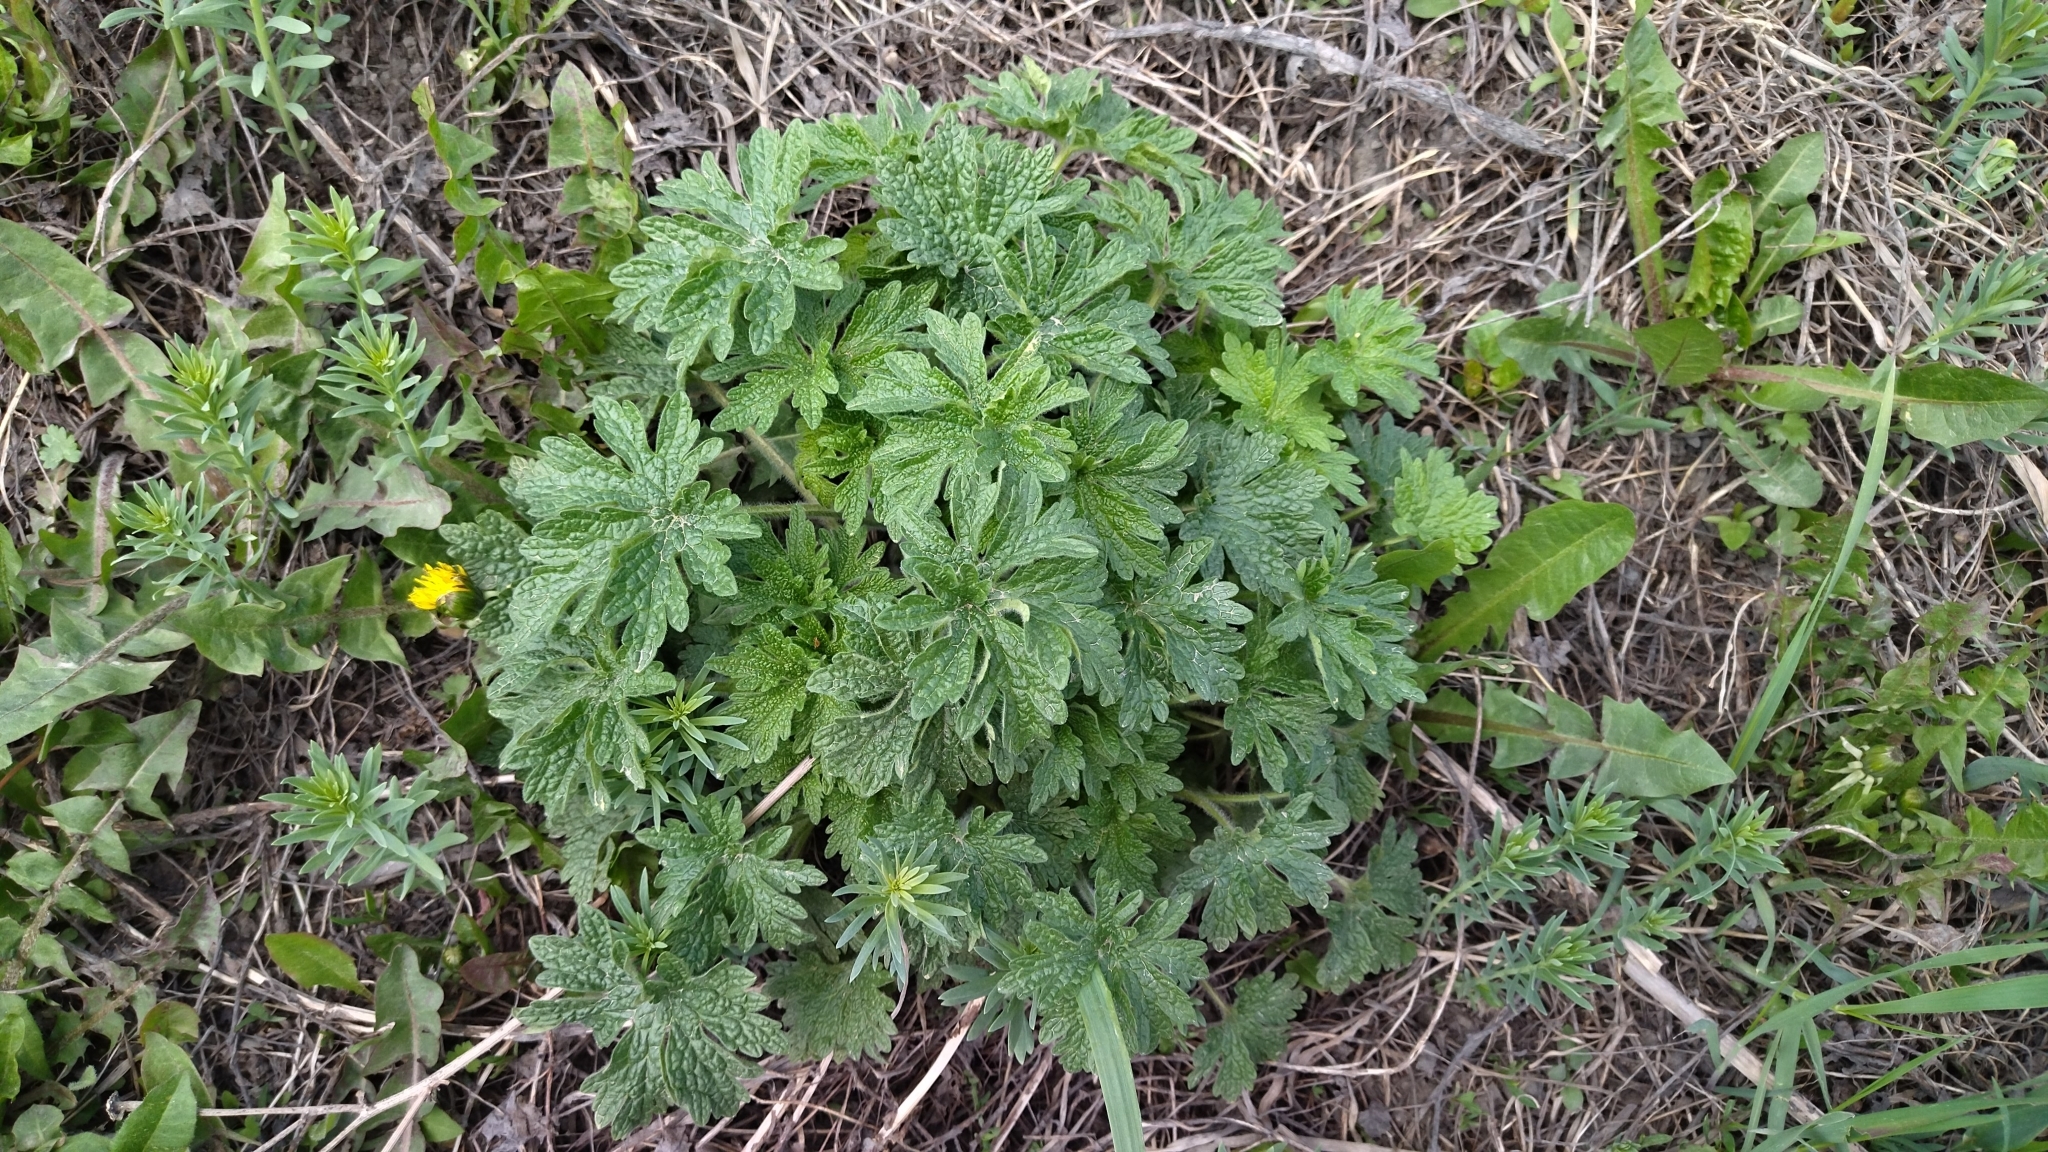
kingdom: Plantae
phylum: Tracheophyta
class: Magnoliopsida
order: Lamiales
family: Lamiaceae
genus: Leonurus
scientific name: Leonurus quinquelobatus
